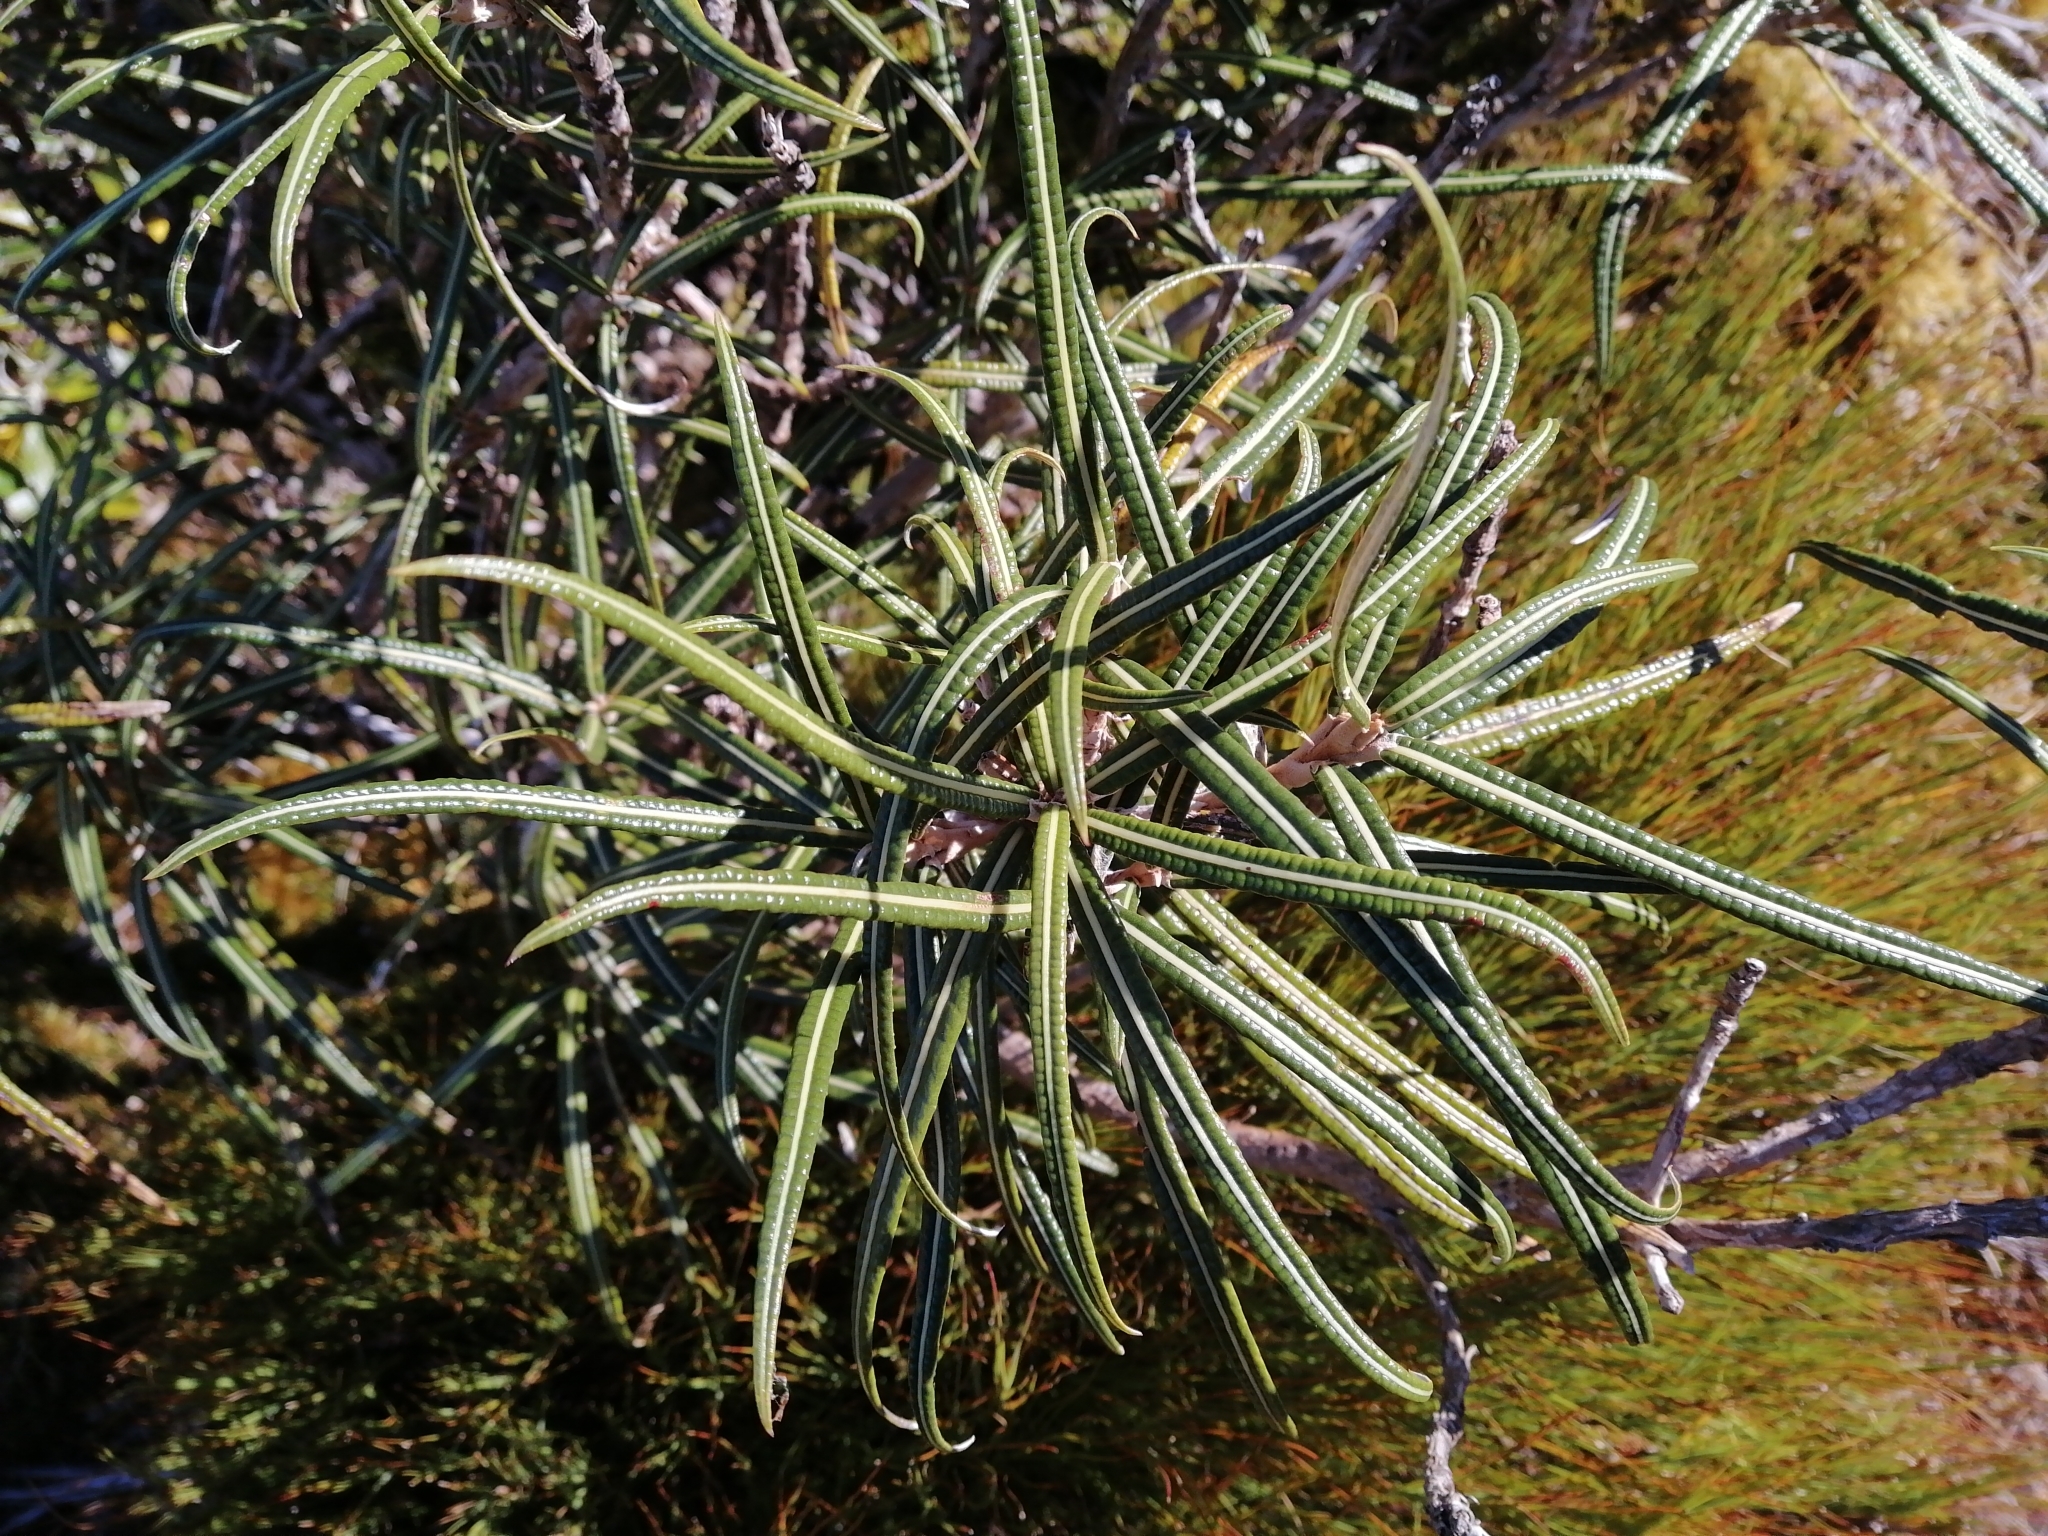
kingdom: Plantae
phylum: Tracheophyta
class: Magnoliopsida
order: Asterales
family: Asteraceae
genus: Olearia
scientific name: Olearia lacunosa
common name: Lancewood tree daisy
